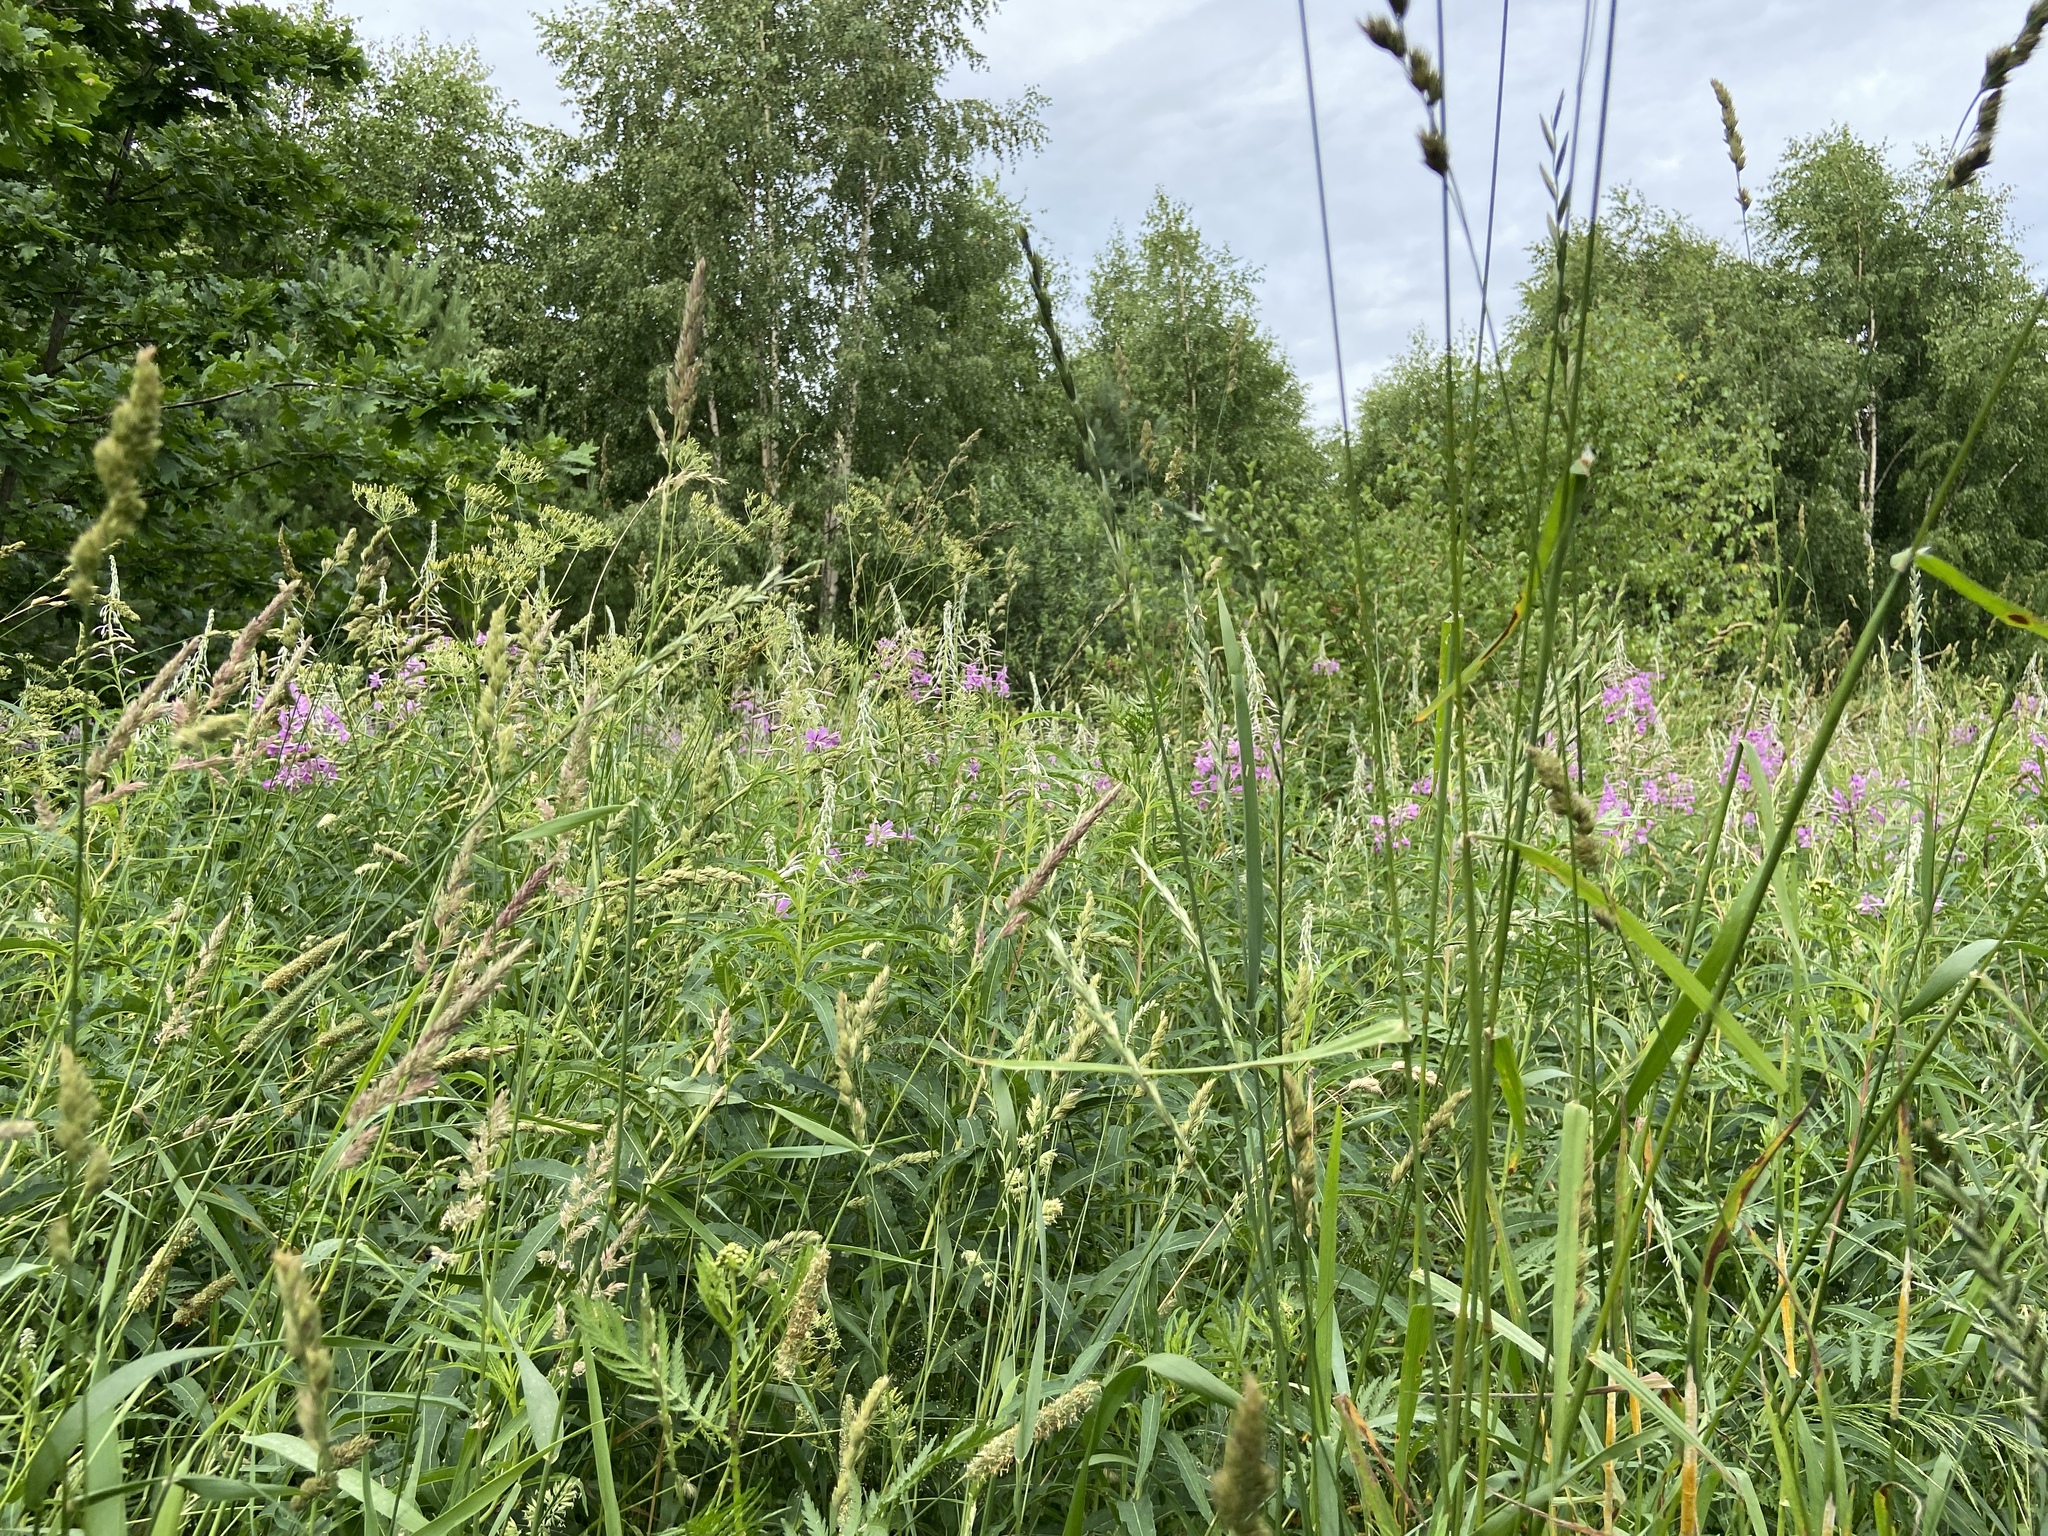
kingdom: Plantae
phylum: Tracheophyta
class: Liliopsida
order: Poales
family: Poaceae
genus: Elymus
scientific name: Elymus repens
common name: Quackgrass
